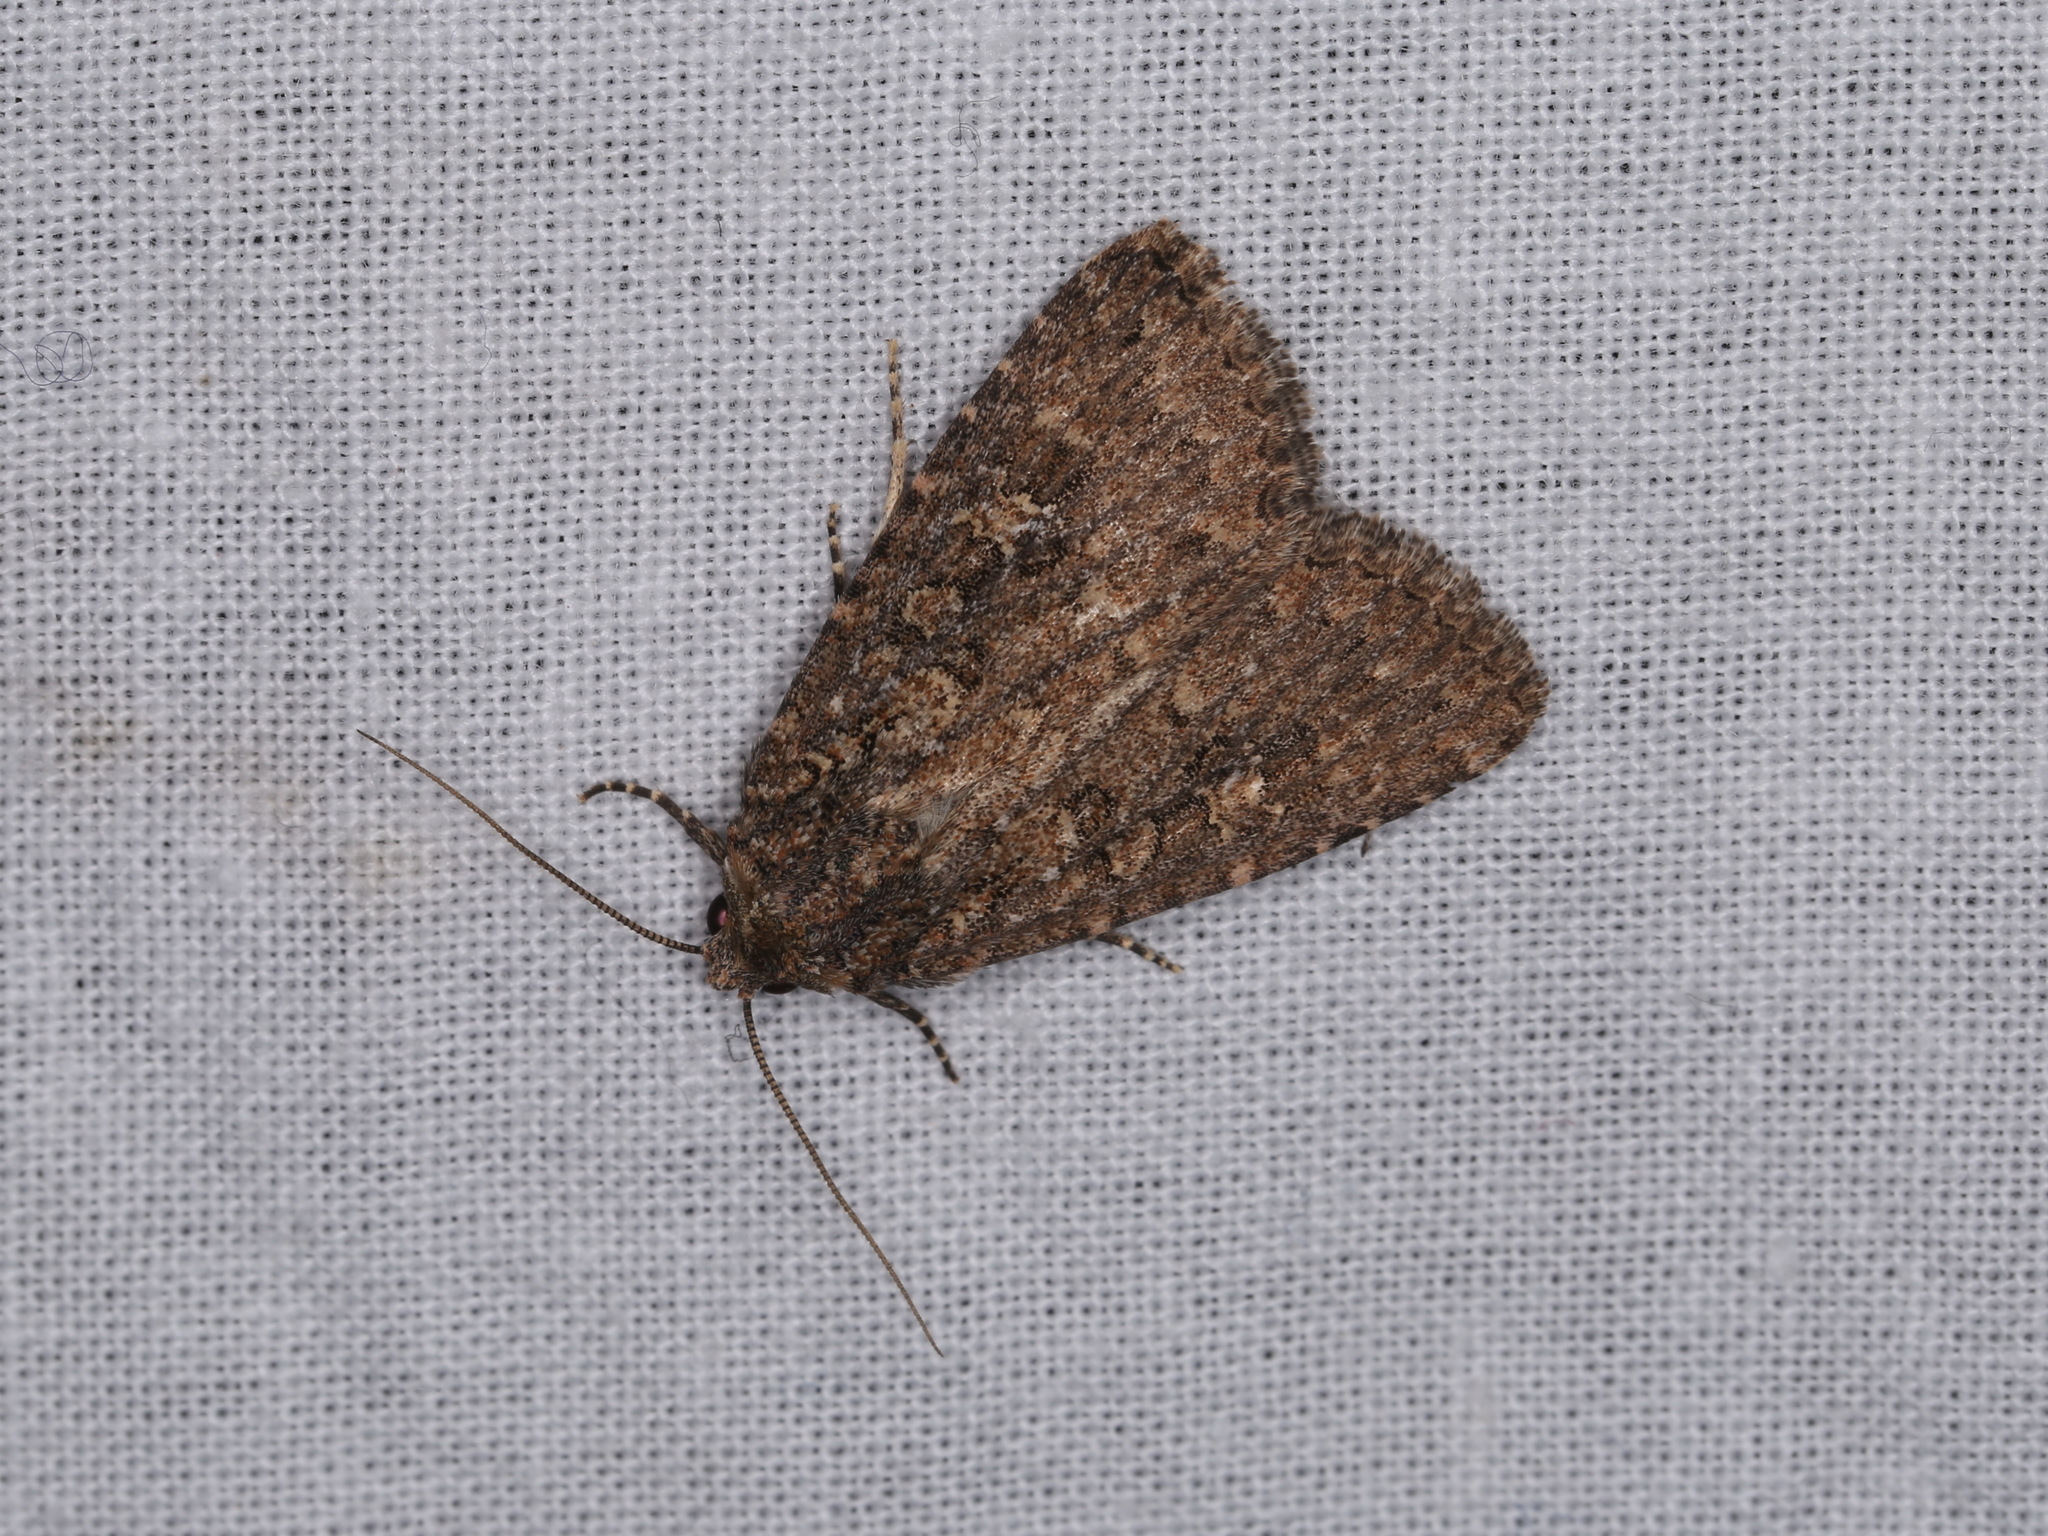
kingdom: Animalia
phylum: Arthropoda
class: Insecta
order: Lepidoptera
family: Noctuidae
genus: Hypoperigea
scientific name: Hypoperigea tonsa
